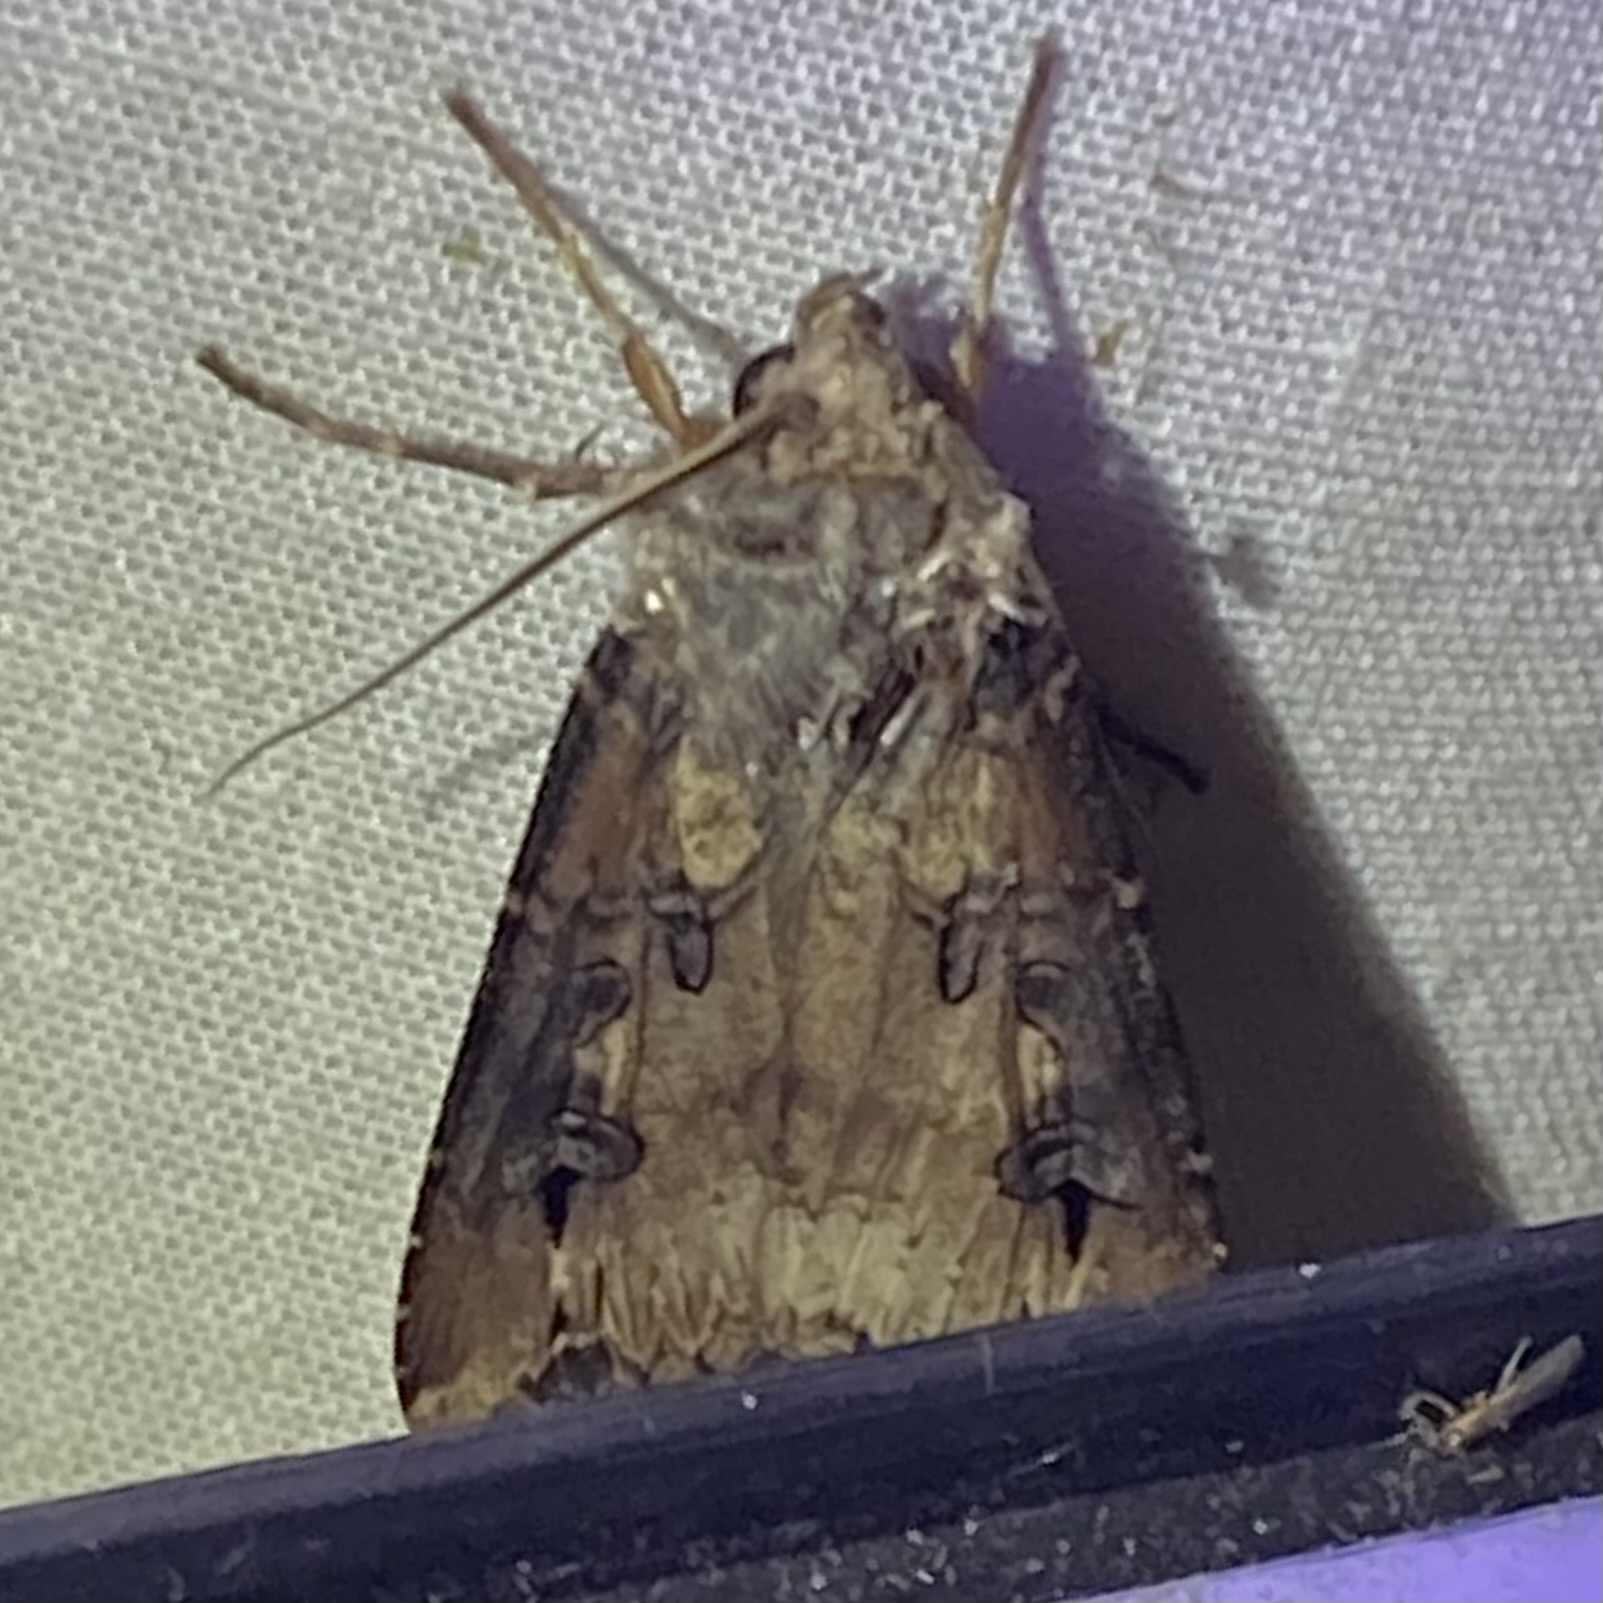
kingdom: Animalia
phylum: Arthropoda
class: Insecta
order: Lepidoptera
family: Noctuidae
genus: Agrotis
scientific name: Agrotis ipsilon
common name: Dark sword-grass
